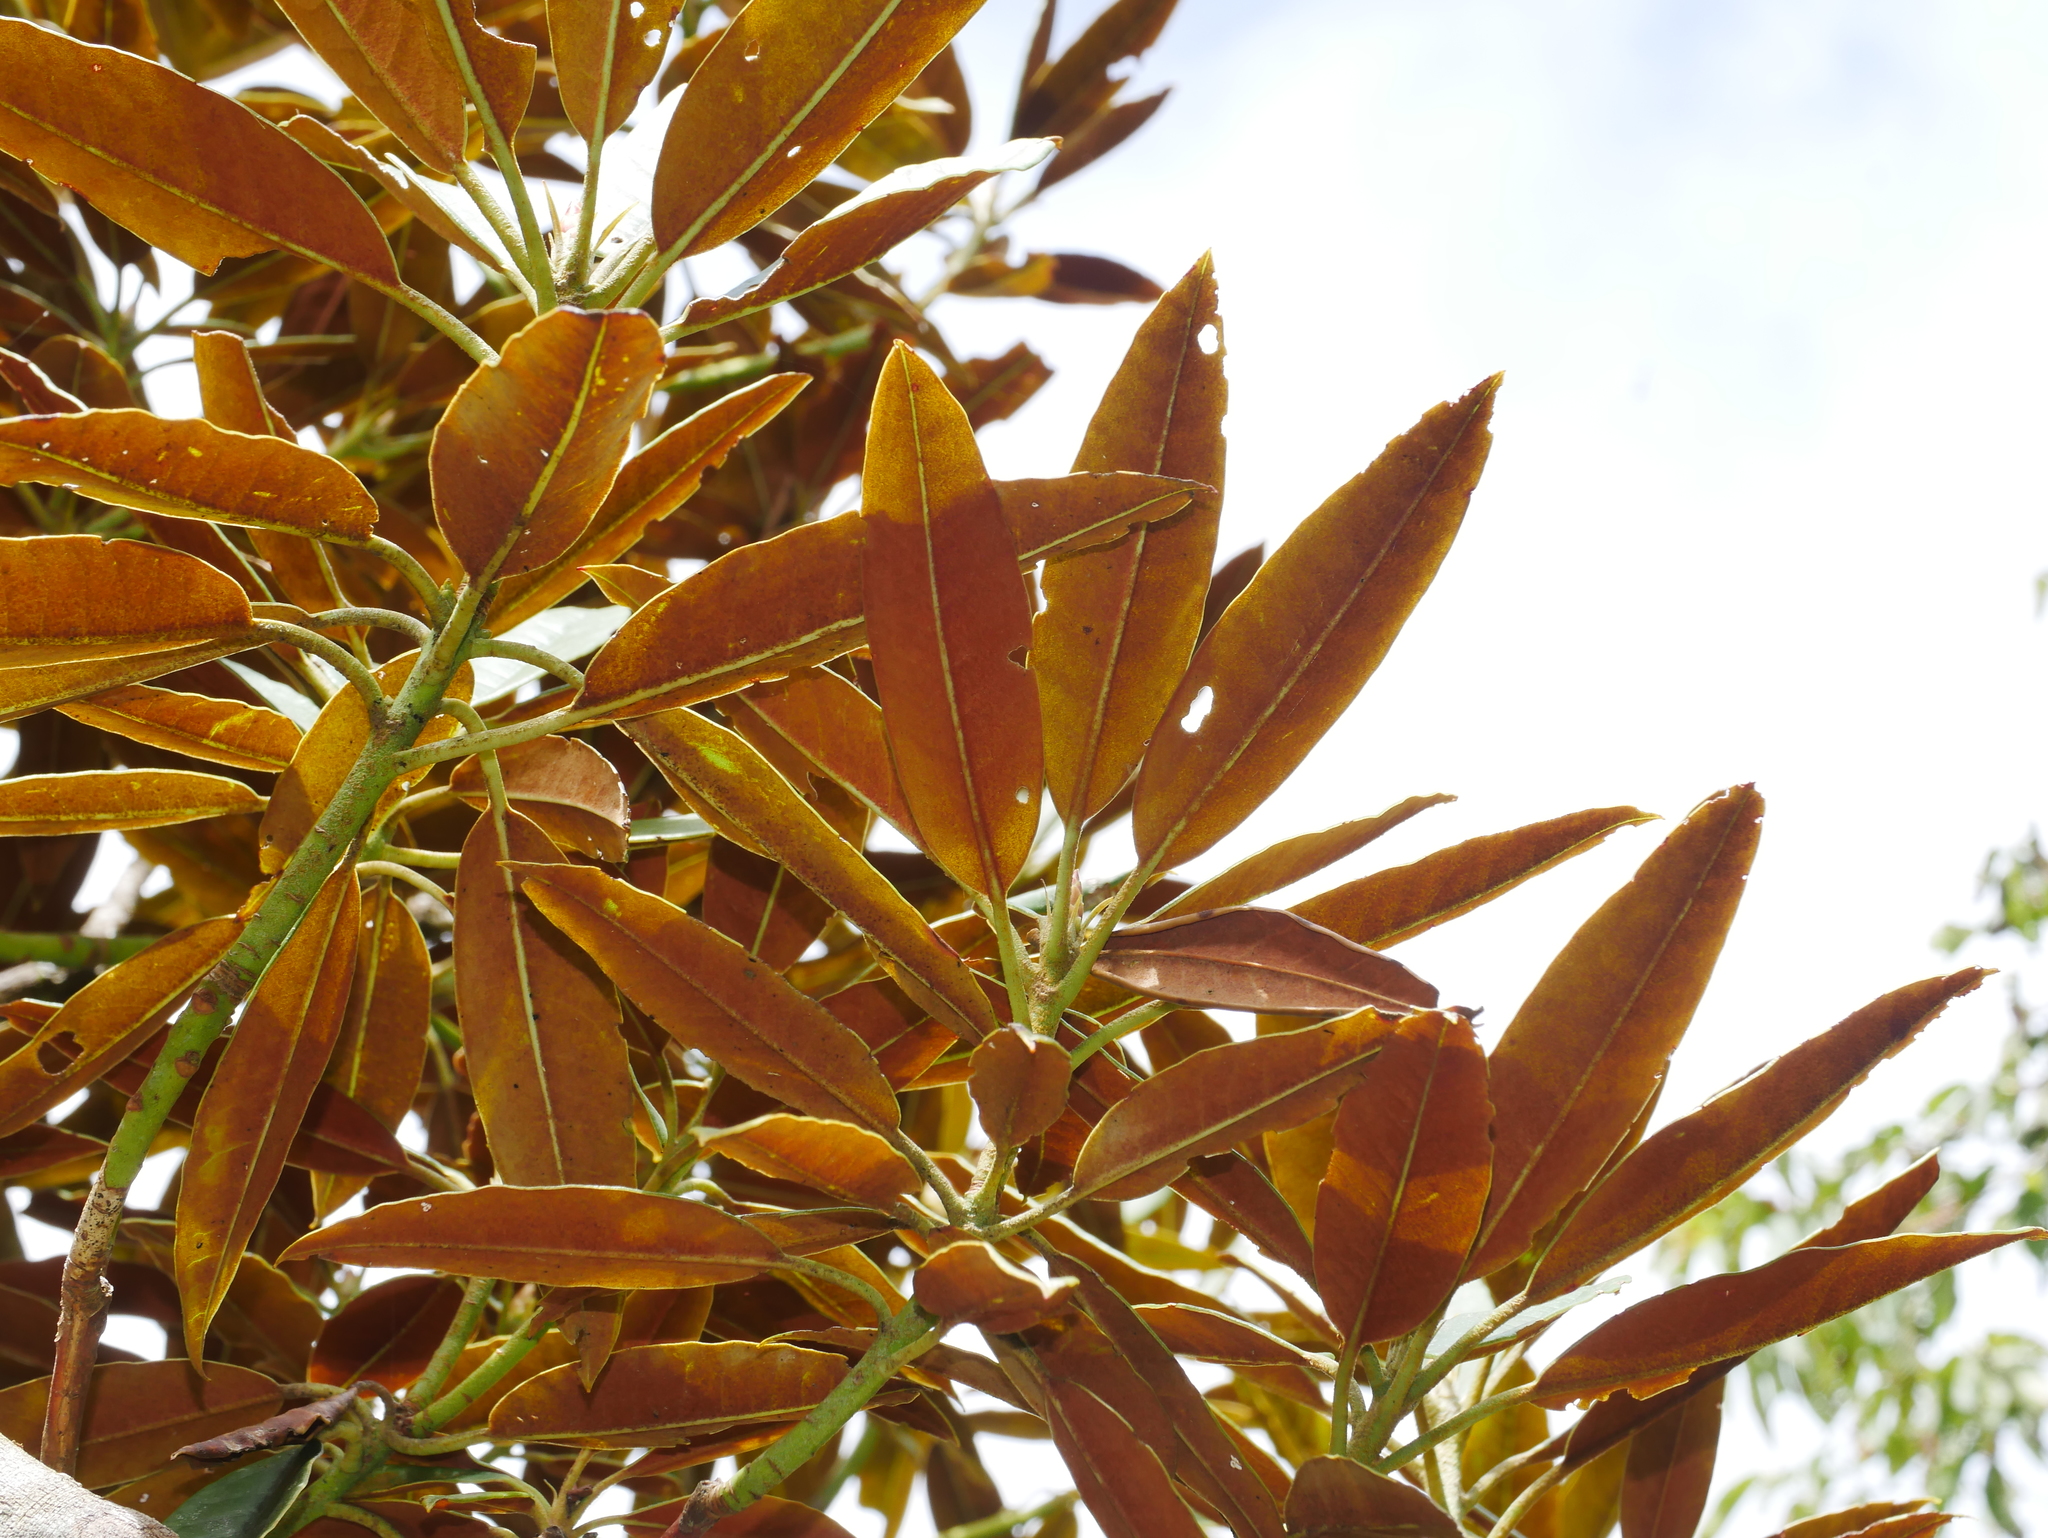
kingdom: Plantae
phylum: Tracheophyta
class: Magnoliopsida
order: Ericales
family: Ericaceae
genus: Rhododendron
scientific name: Rhododendron hyperythrum
